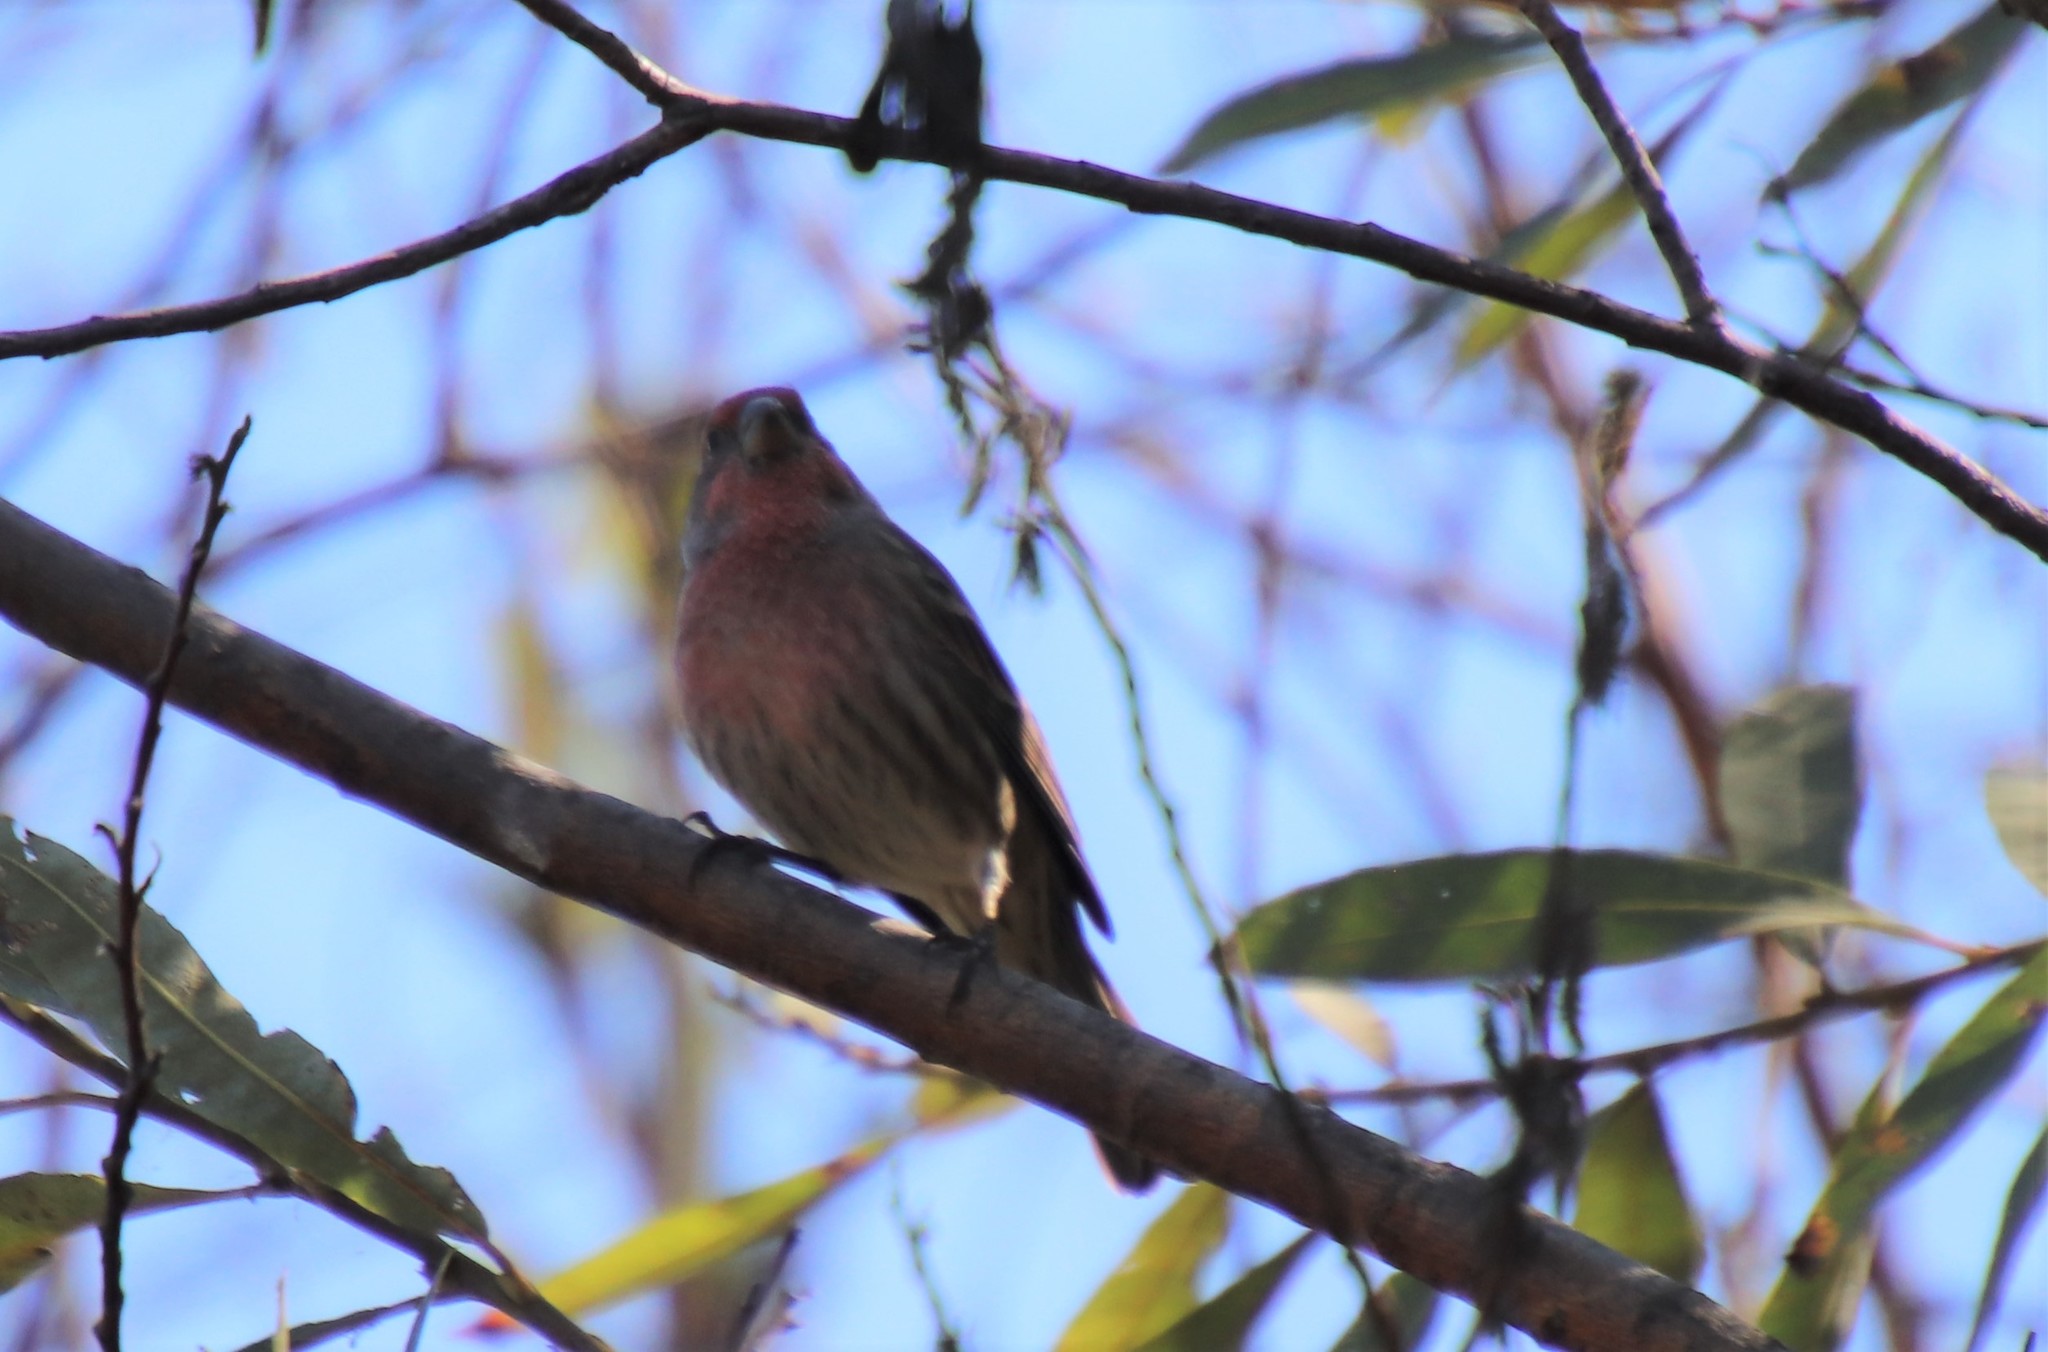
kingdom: Animalia
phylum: Chordata
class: Aves
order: Passeriformes
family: Fringillidae
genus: Haemorhous
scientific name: Haemorhous mexicanus
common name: House finch
